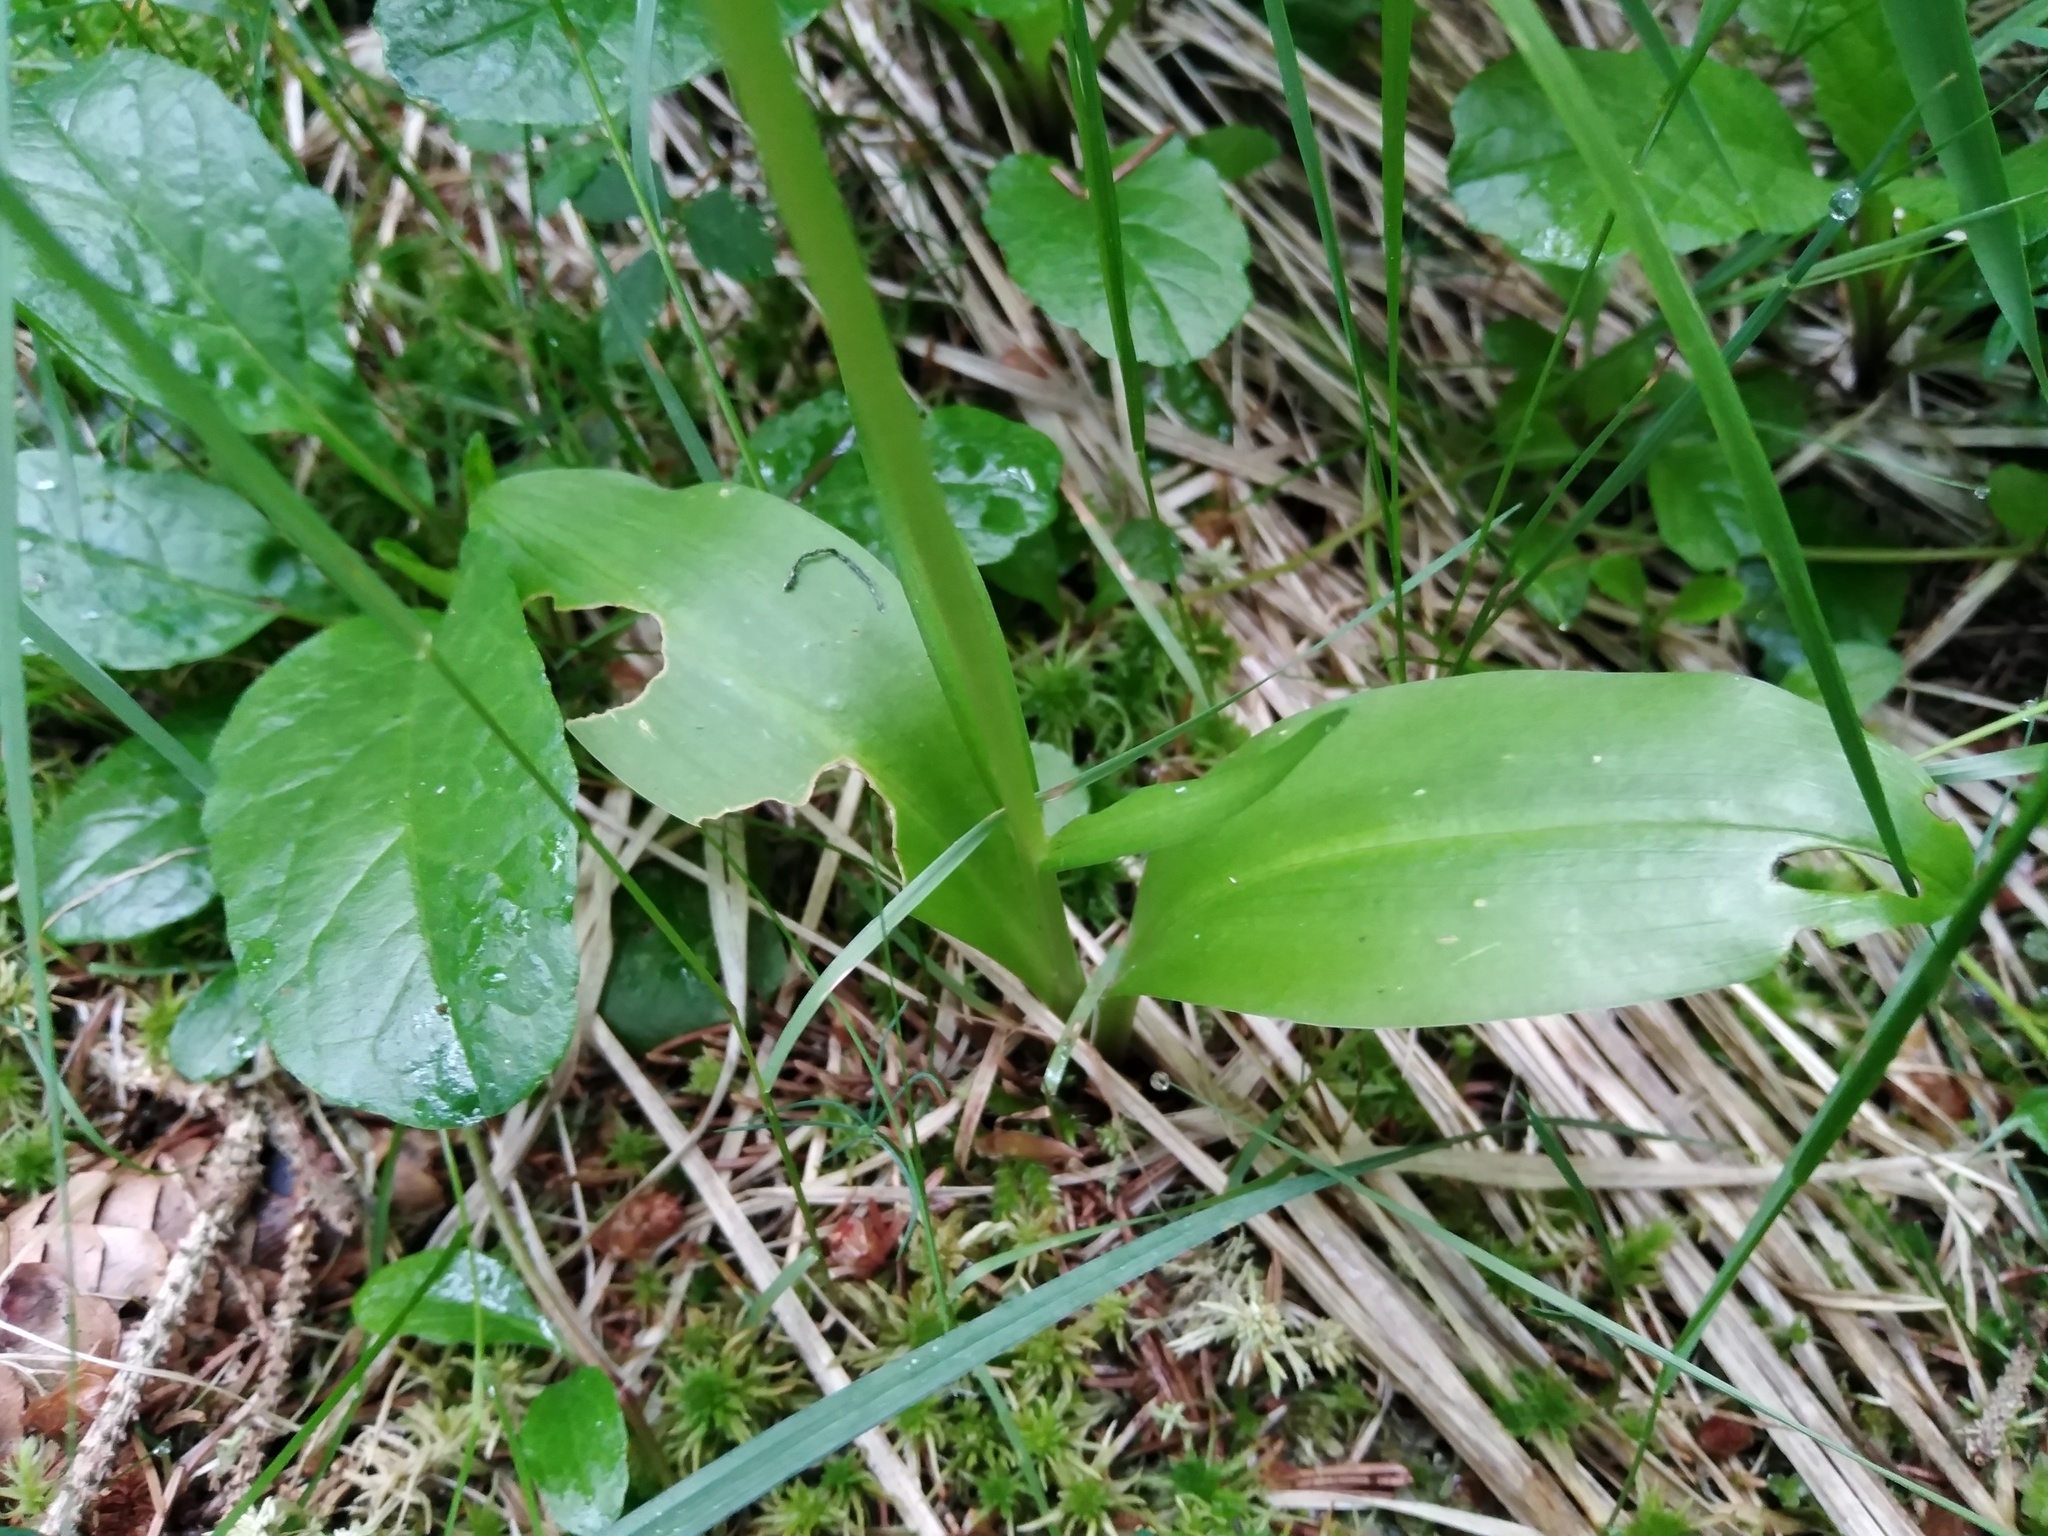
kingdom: Plantae
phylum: Tracheophyta
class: Liliopsida
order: Asparagales
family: Orchidaceae
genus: Platanthera
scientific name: Platanthera chlorantha
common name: Greater butterfly-orchid
